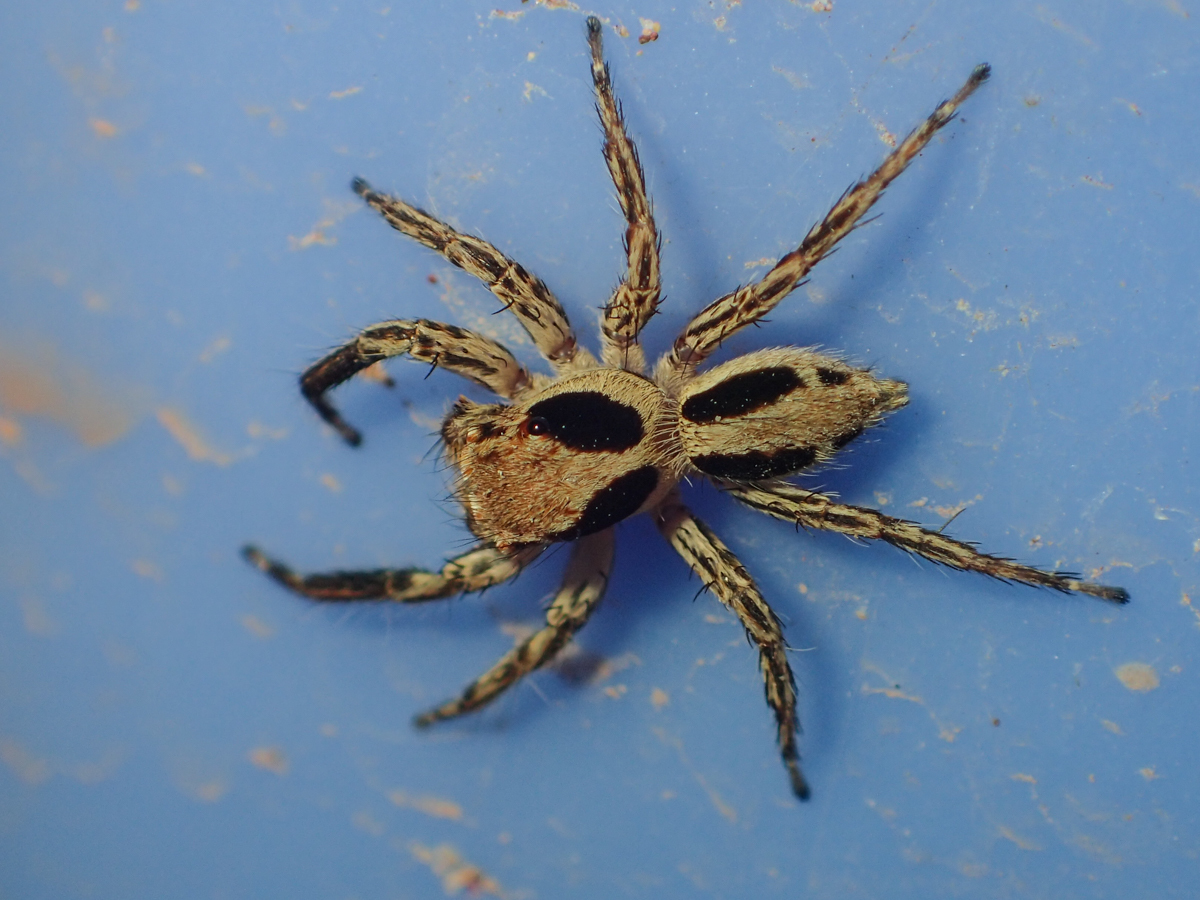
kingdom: Animalia
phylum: Arthropoda
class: Arachnida
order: Araneae
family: Salticidae
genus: Plexippus
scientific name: Plexippus petersi
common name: Jumping spider
